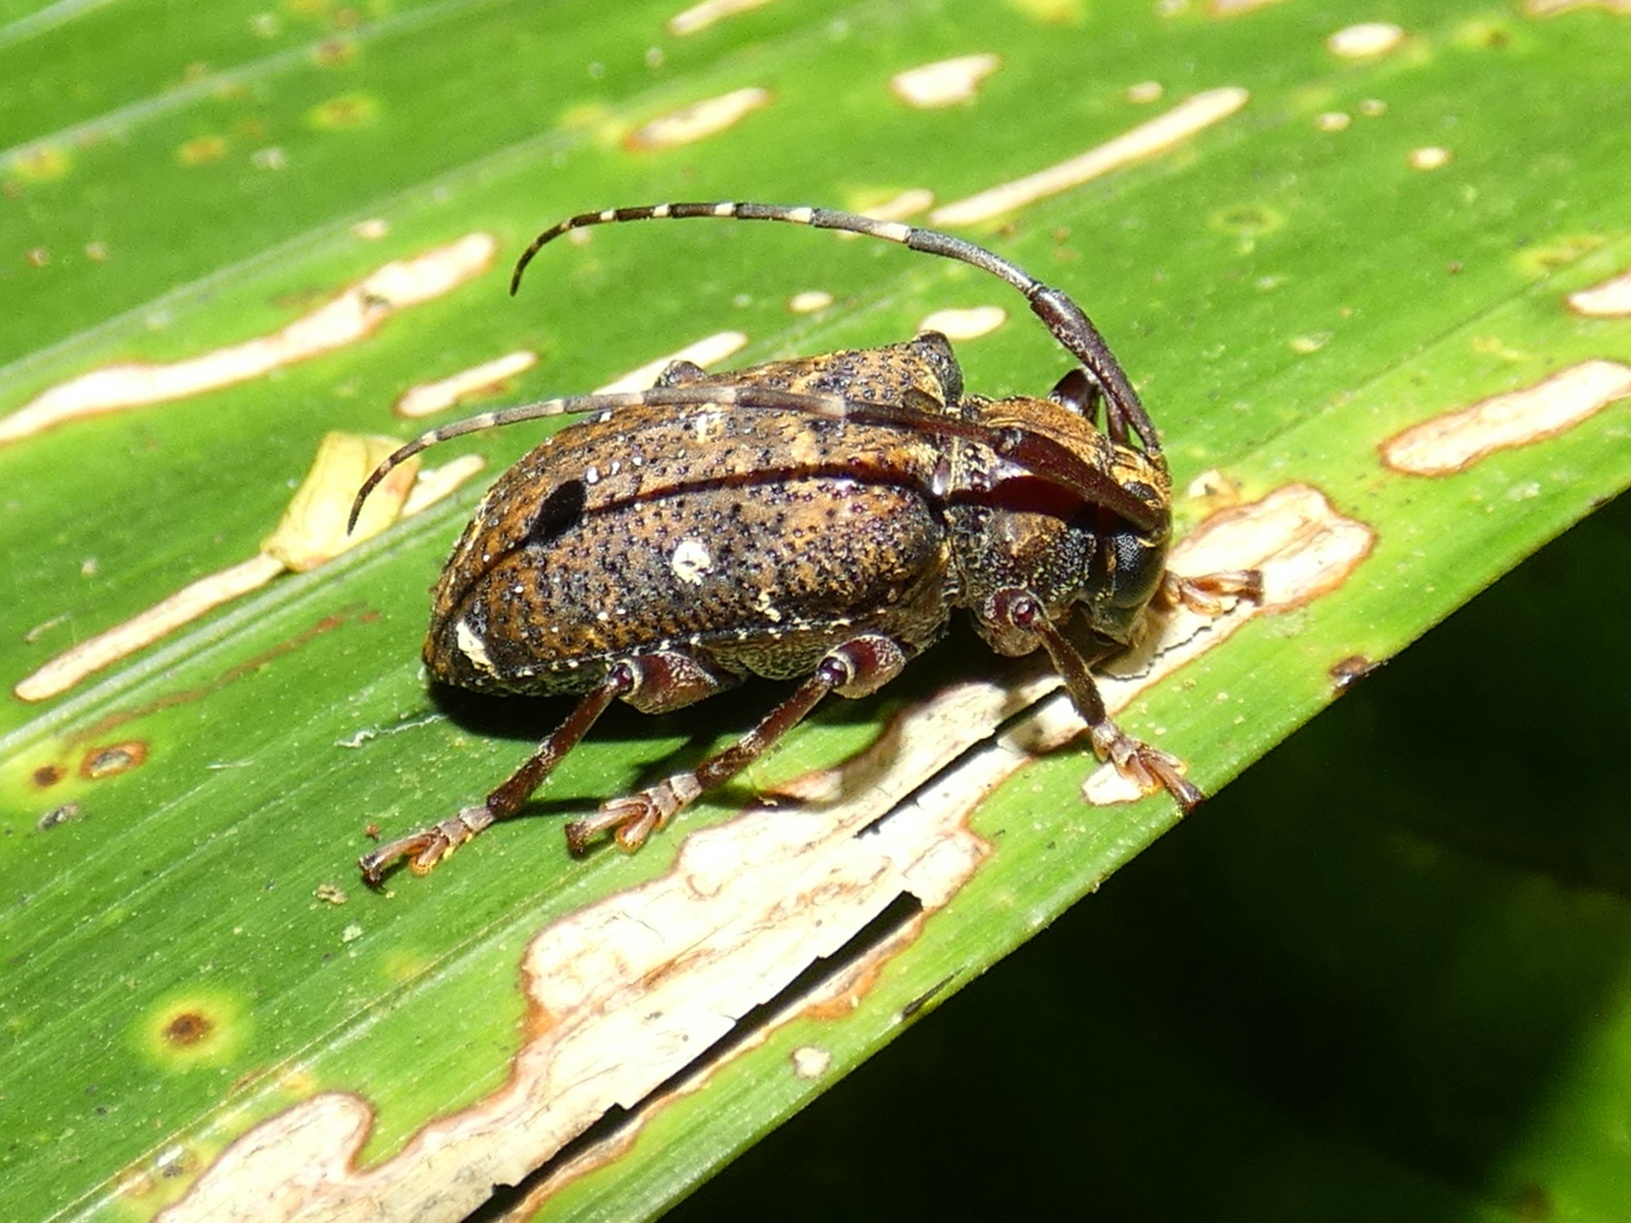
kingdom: Animalia
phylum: Arthropoda
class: Insecta
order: Coleoptera
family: Cerambycidae
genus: Trypanidius
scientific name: Trypanidius rubripes
